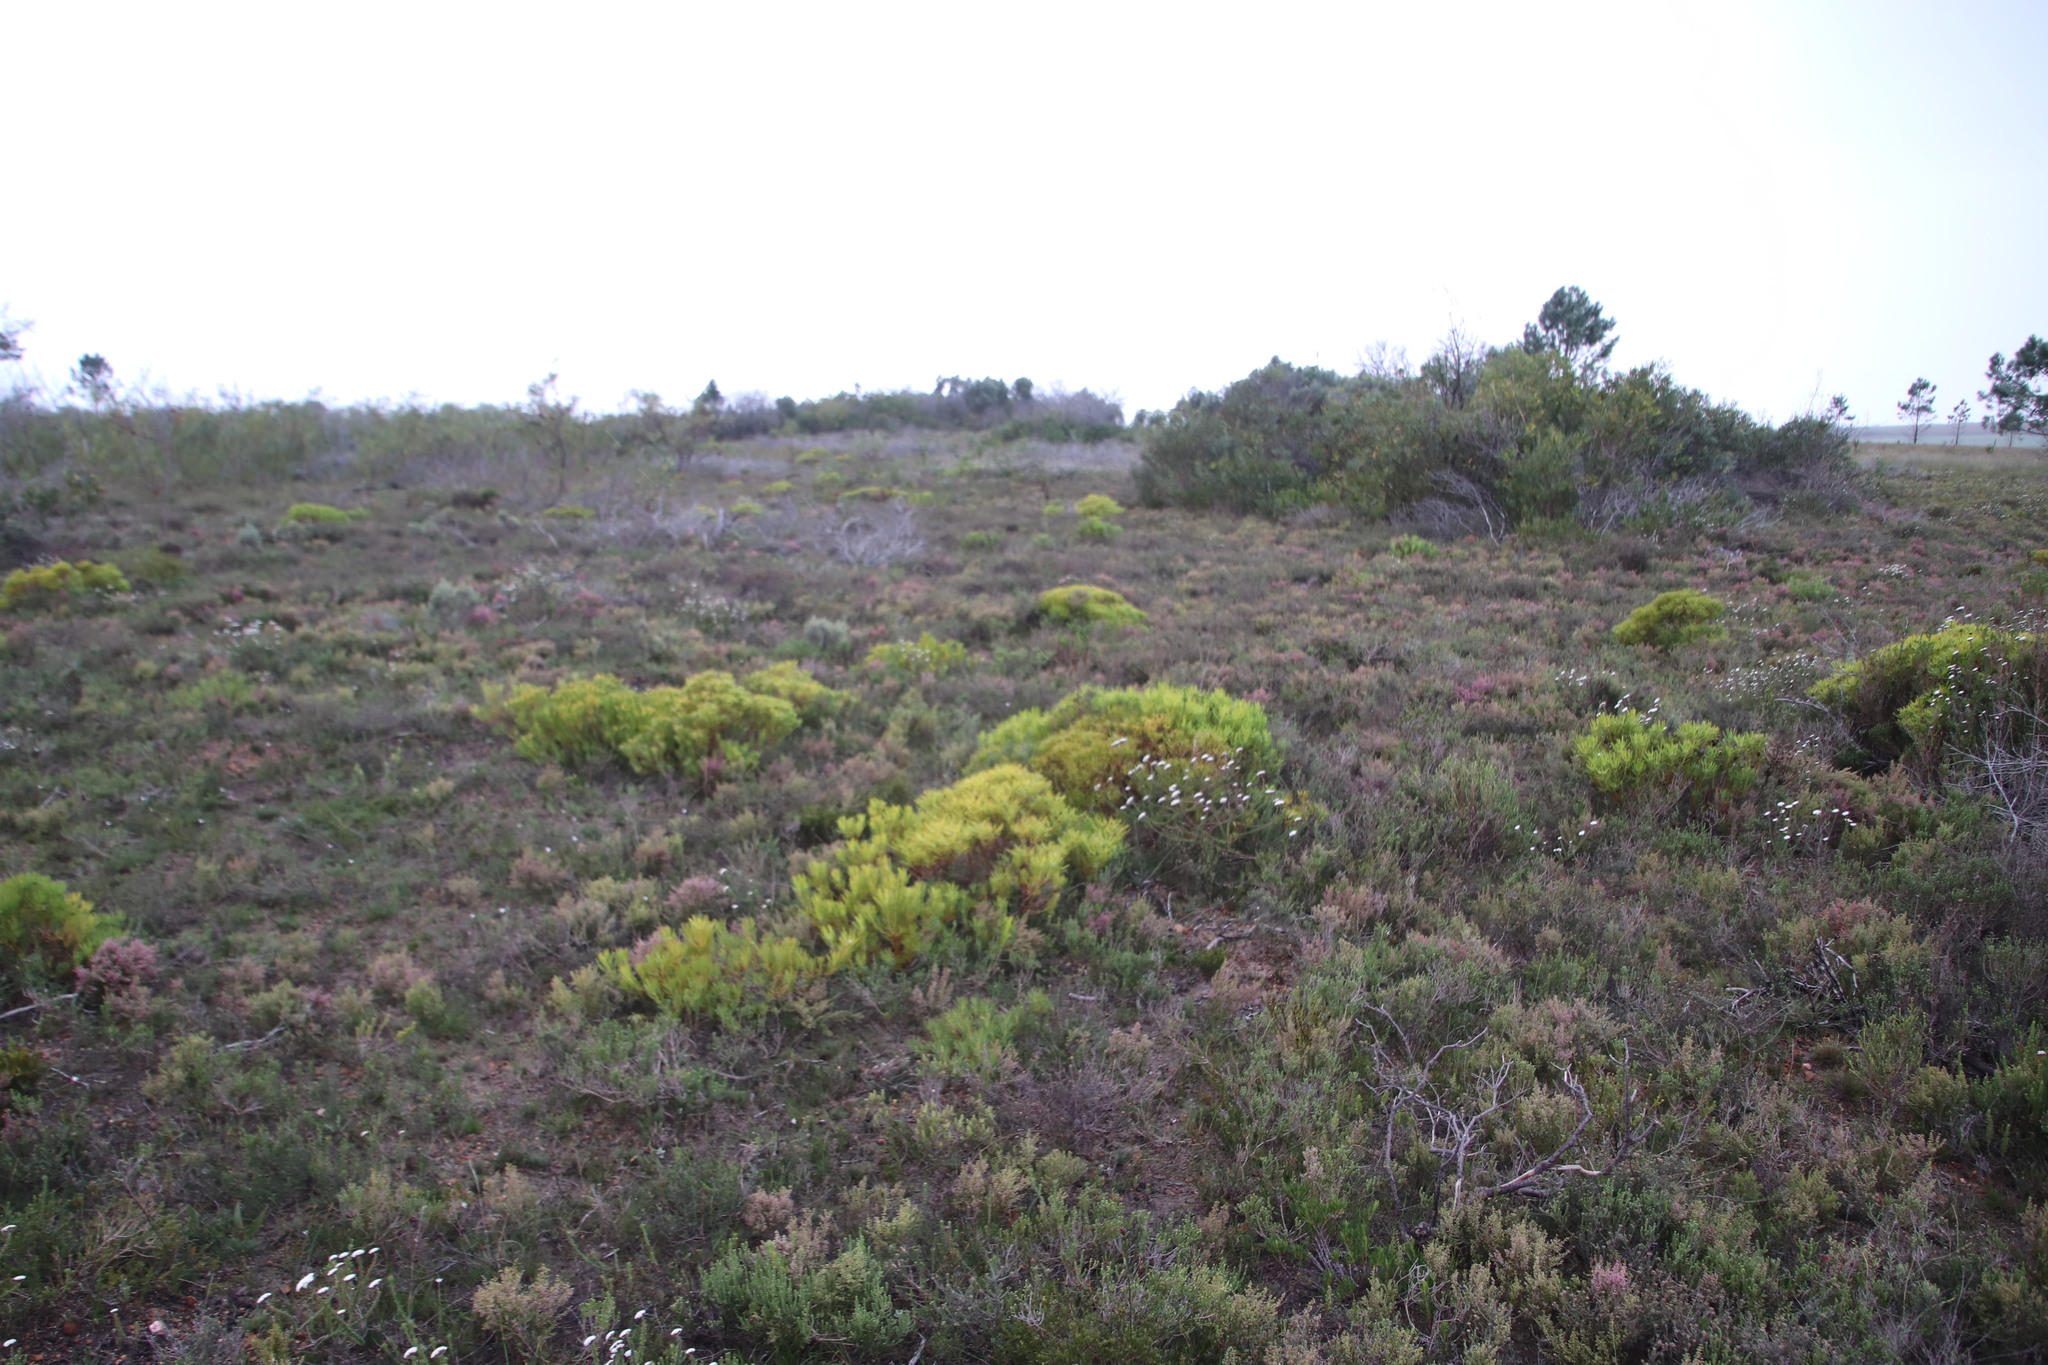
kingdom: Plantae
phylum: Tracheophyta
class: Magnoliopsida
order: Proteales
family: Proteaceae
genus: Leucadendron
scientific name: Leucadendron salignum
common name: Common sunshine conebush
